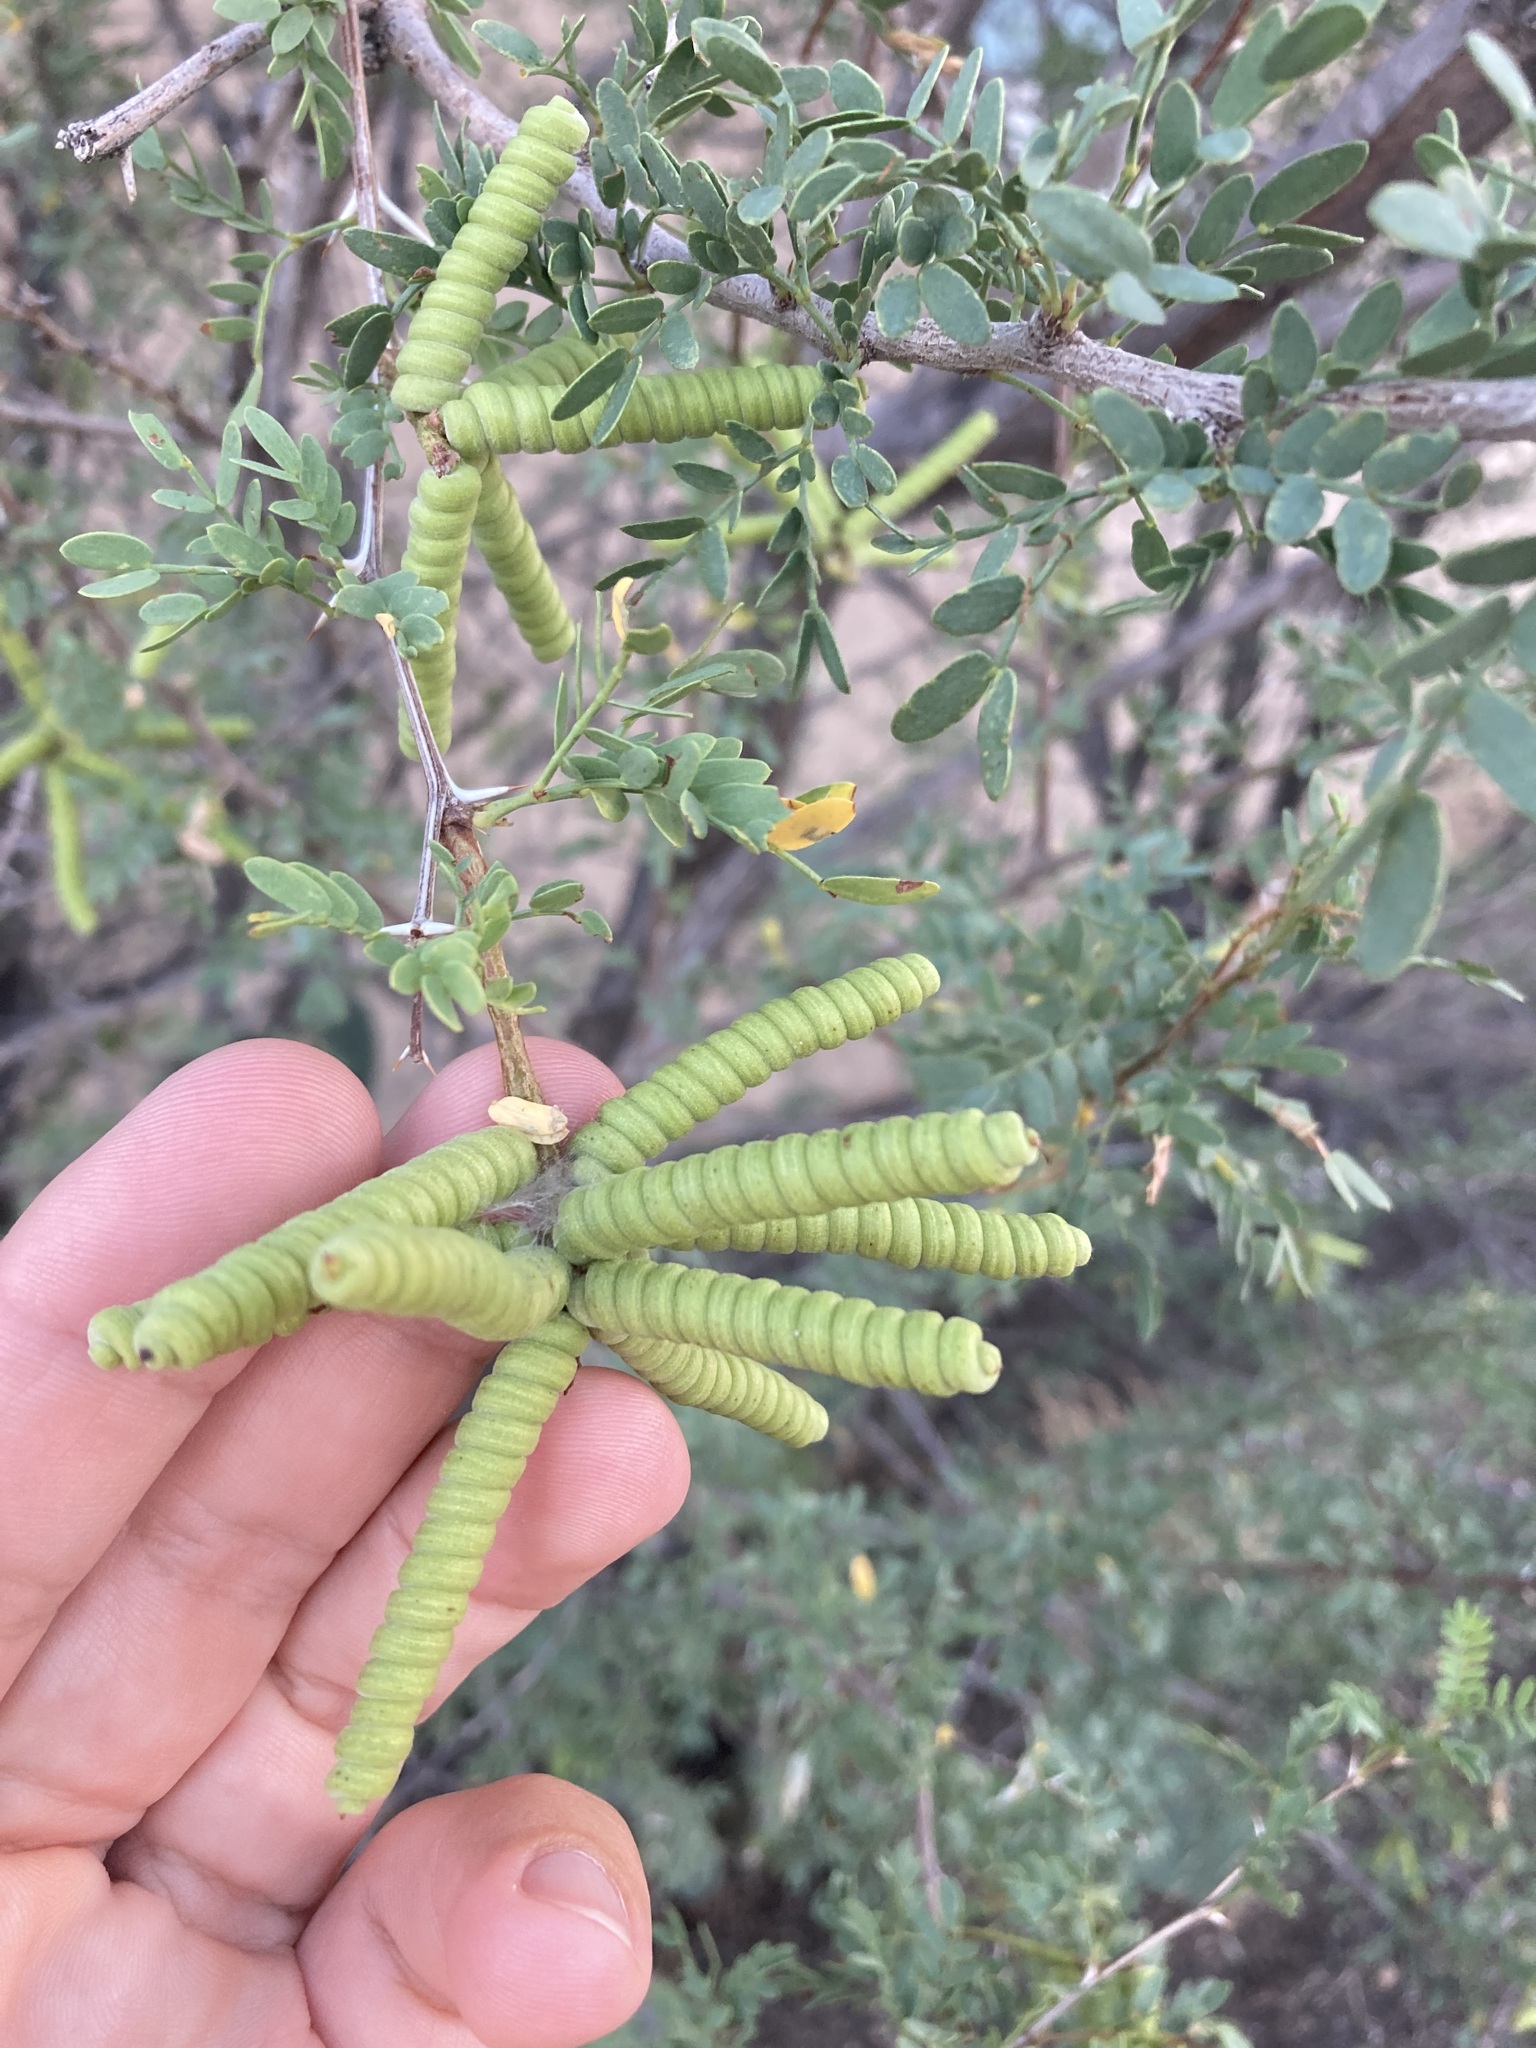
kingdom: Plantae
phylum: Tracheophyta
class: Magnoliopsida
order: Fabales
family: Fabaceae
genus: Prosopis
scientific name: Prosopis pubescens
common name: Screw-bean
